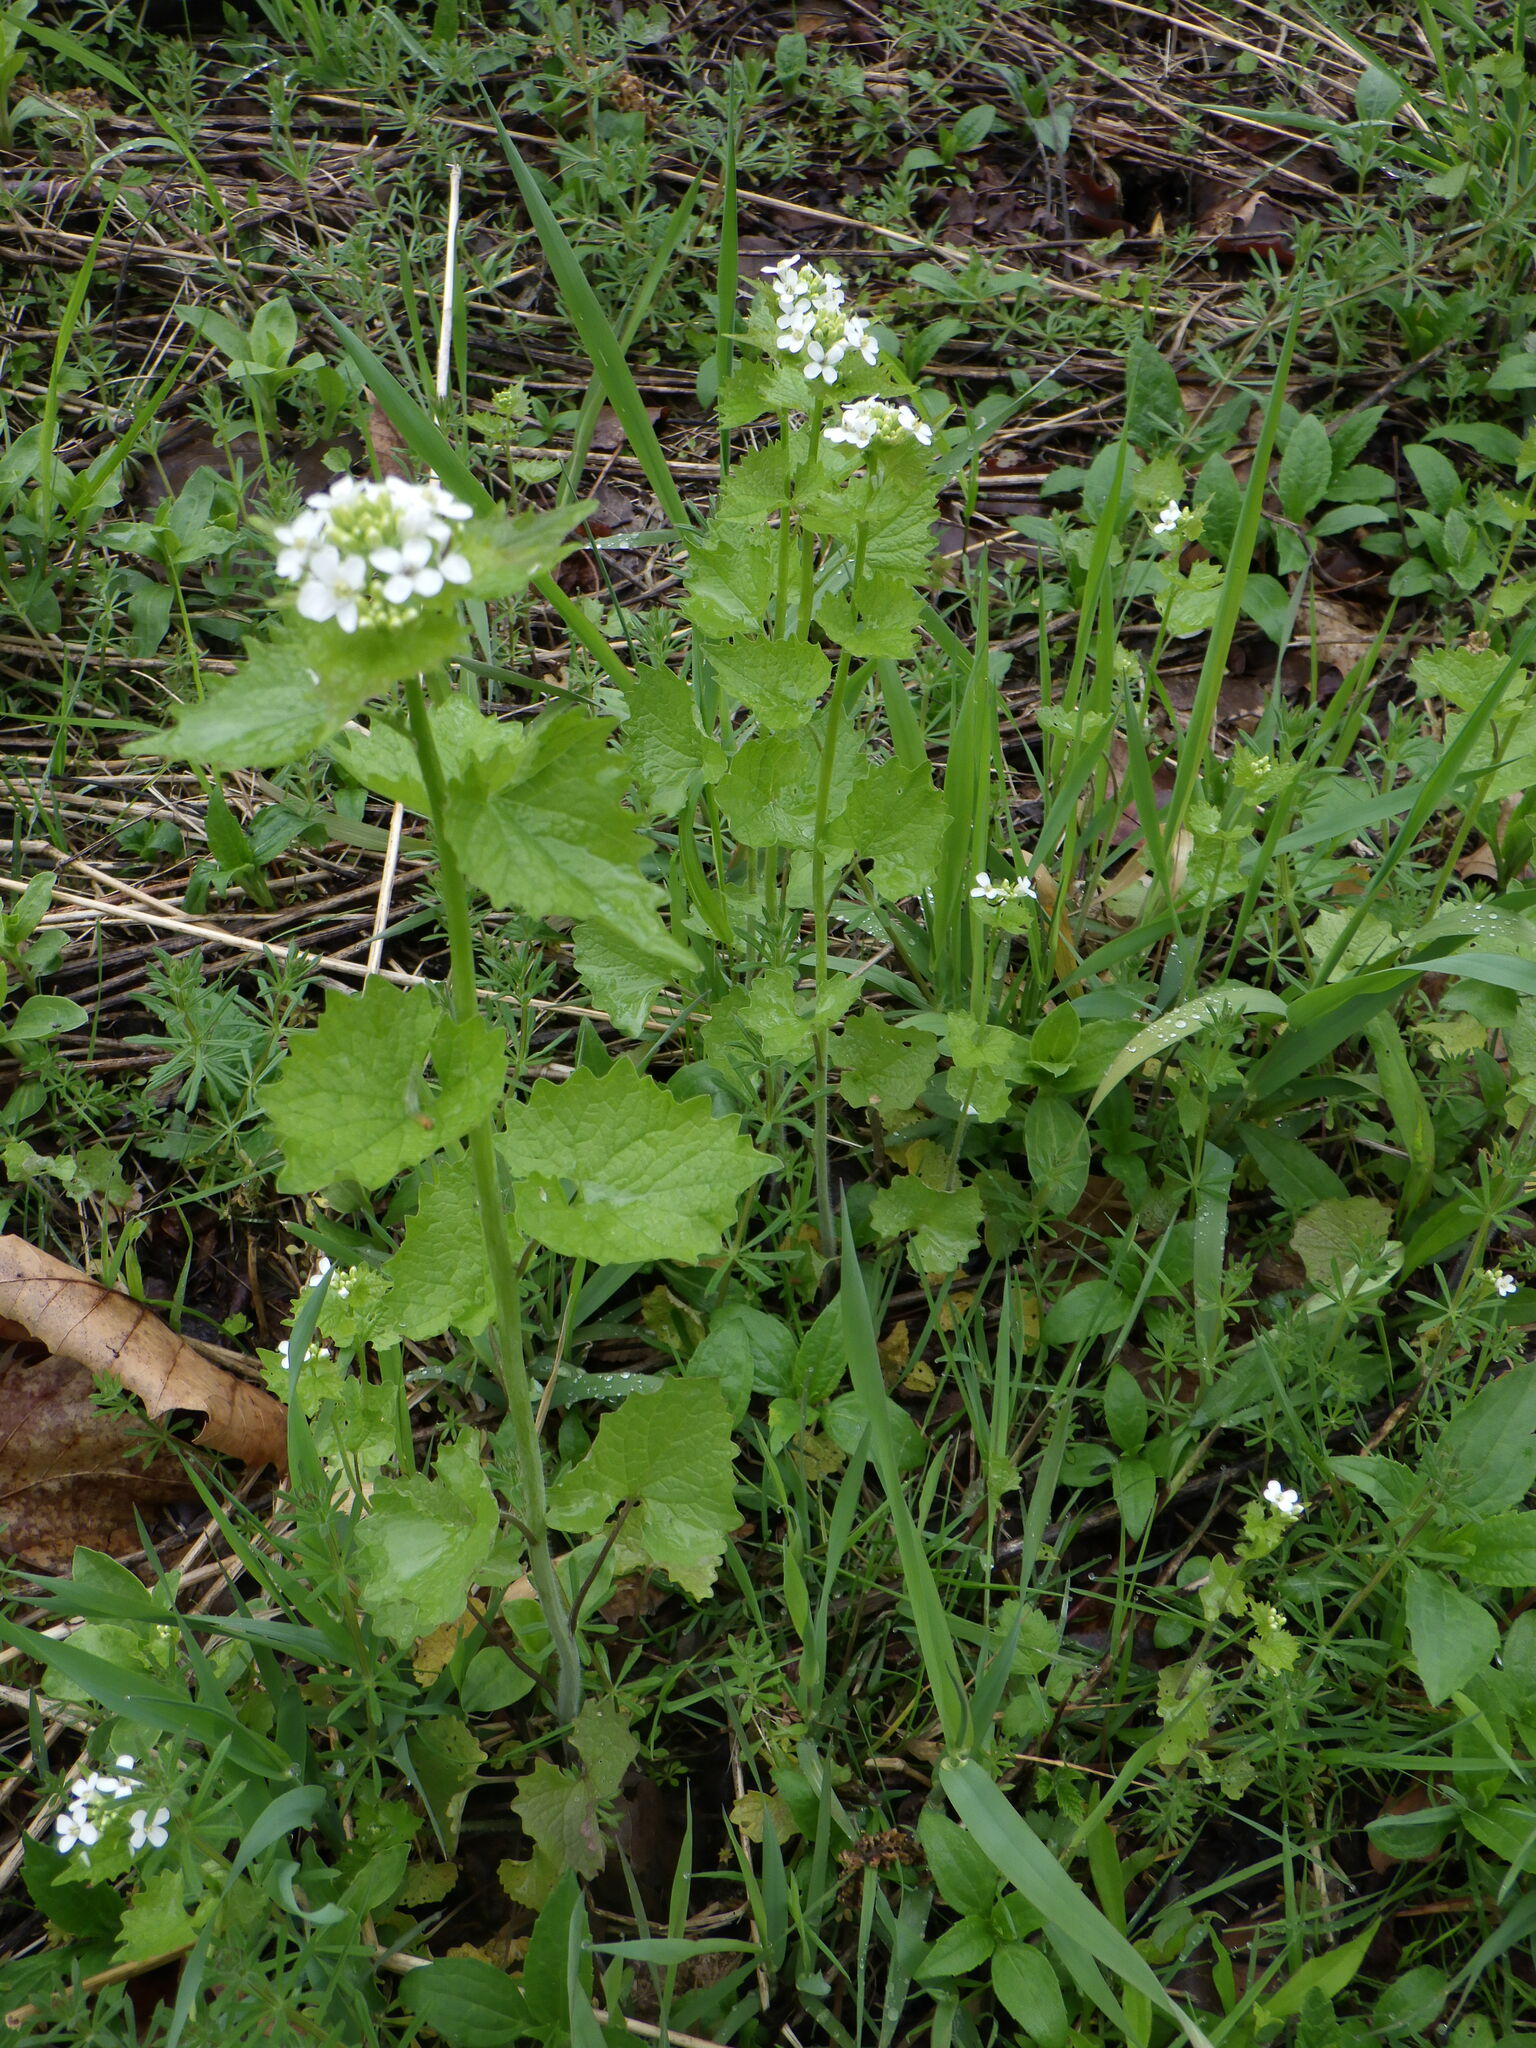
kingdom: Plantae
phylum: Tracheophyta
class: Magnoliopsida
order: Brassicales
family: Brassicaceae
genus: Alliaria
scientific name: Alliaria petiolata
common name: Garlic mustard
